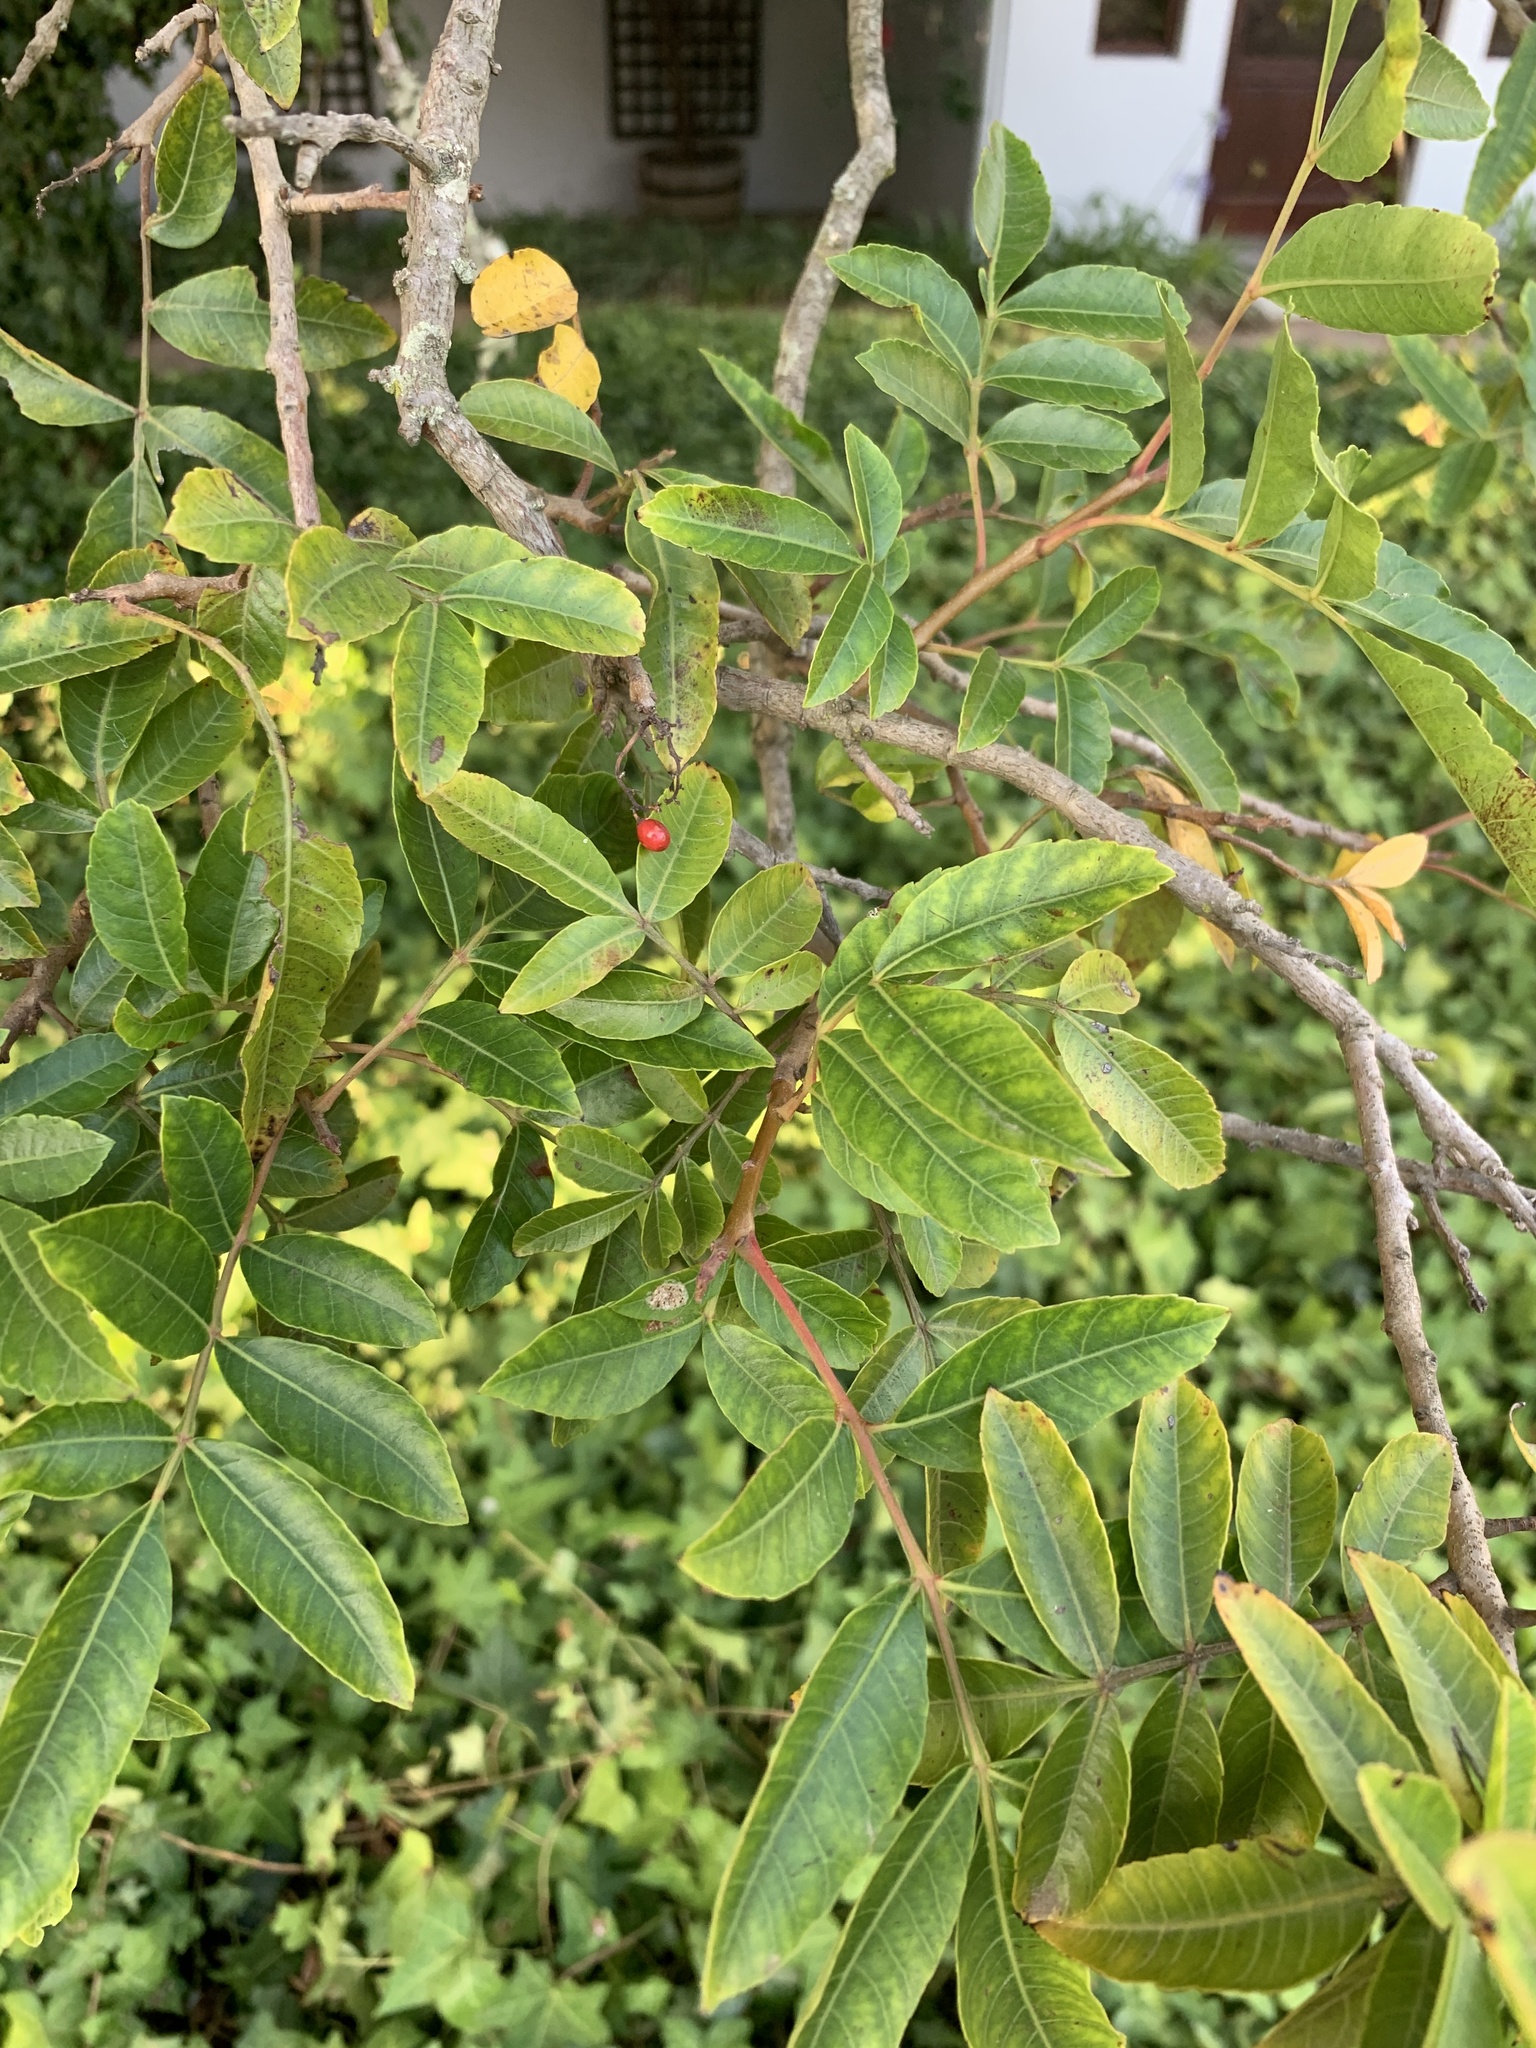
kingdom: Plantae
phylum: Tracheophyta
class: Magnoliopsida
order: Sapindales
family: Anacardiaceae
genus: Schinus
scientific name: Schinus terebinthifolia
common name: Brazilian peppertree
